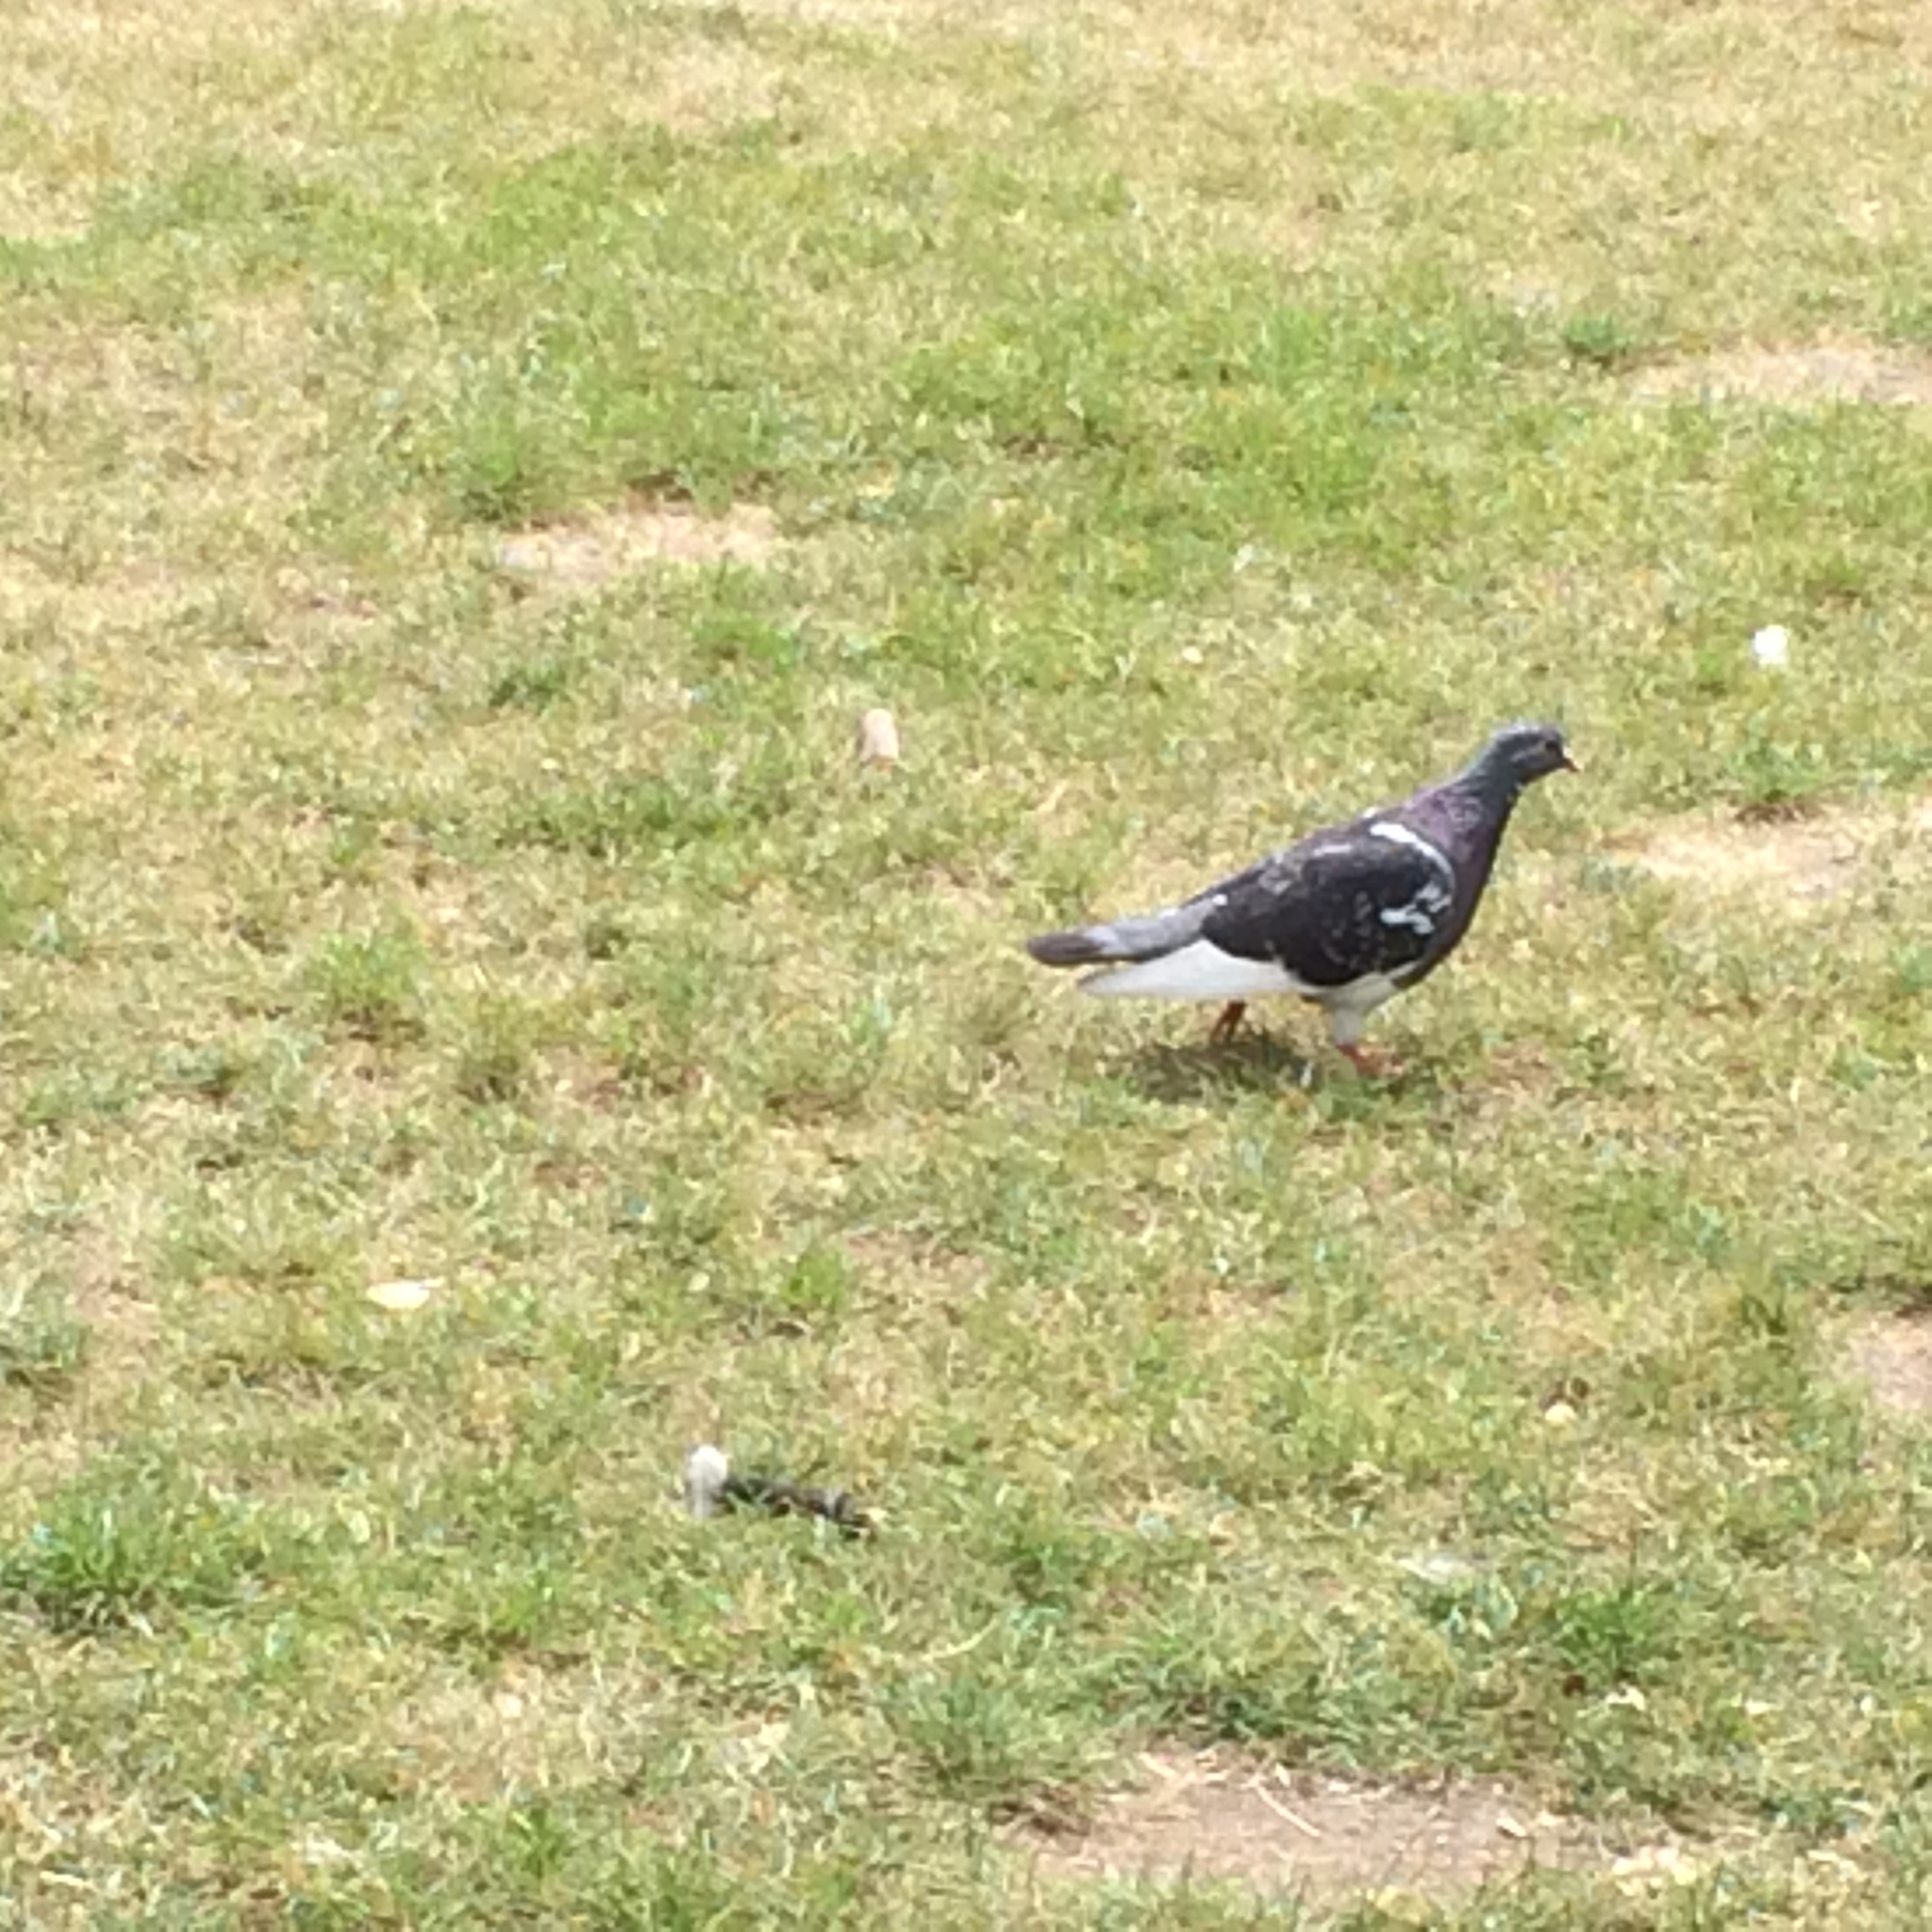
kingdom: Animalia
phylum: Chordata
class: Aves
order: Columbiformes
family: Columbidae
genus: Columba
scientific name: Columba livia
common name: Rock pigeon
